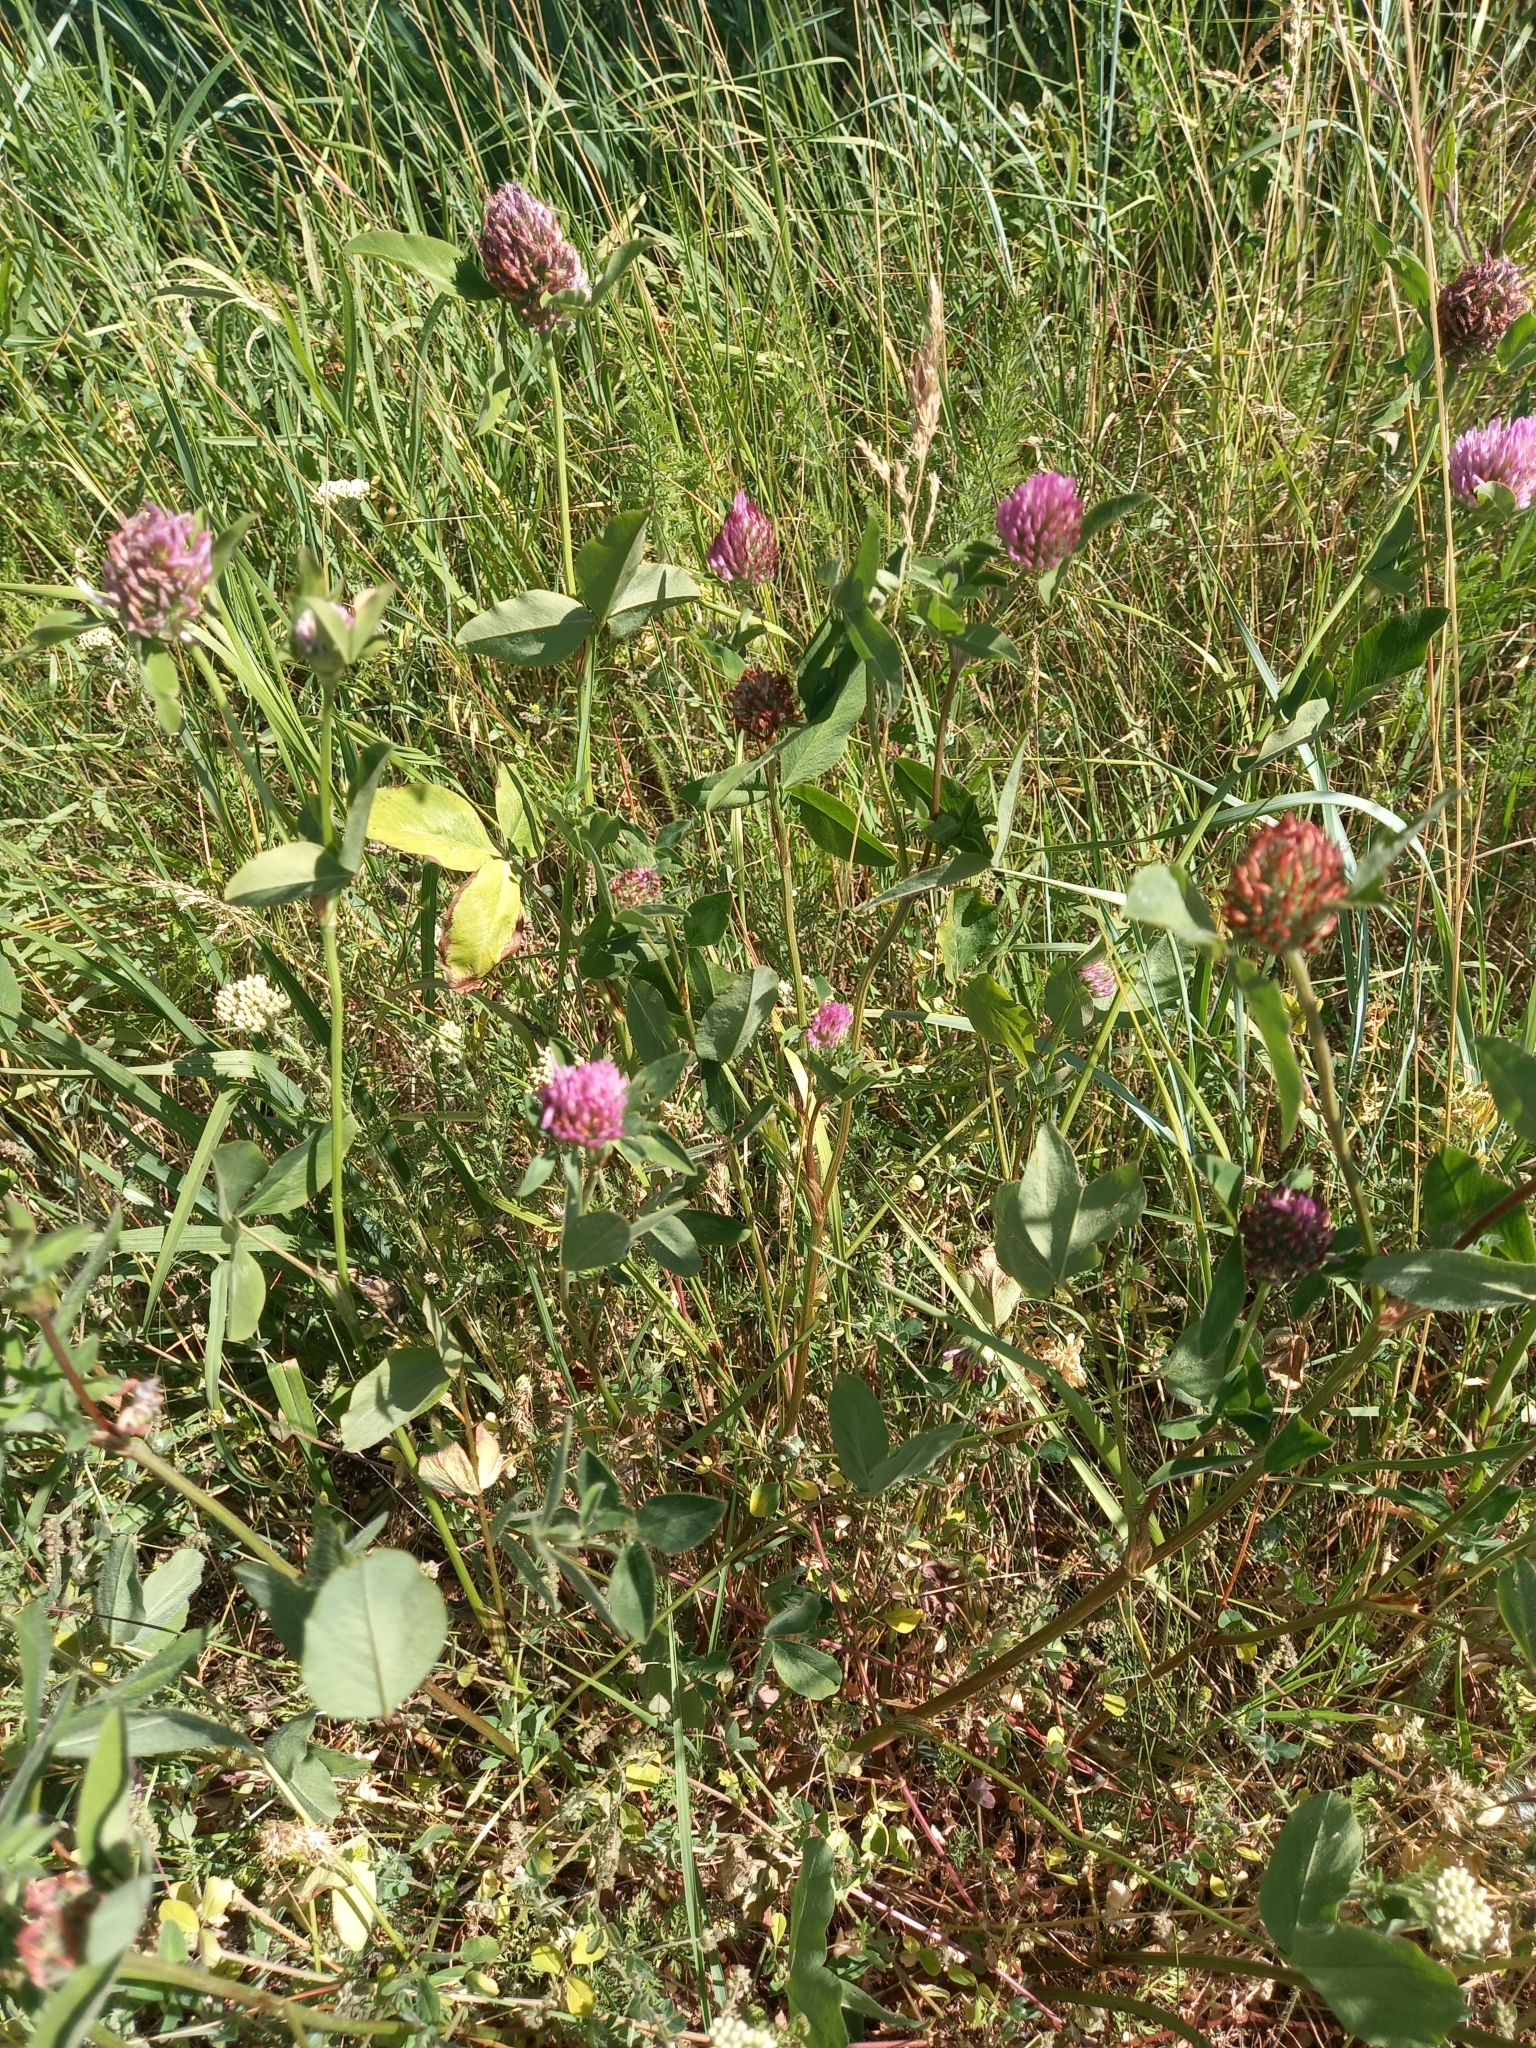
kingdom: Plantae
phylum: Tracheophyta
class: Magnoliopsida
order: Fabales
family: Fabaceae
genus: Trifolium
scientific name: Trifolium pratense
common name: Red clover
